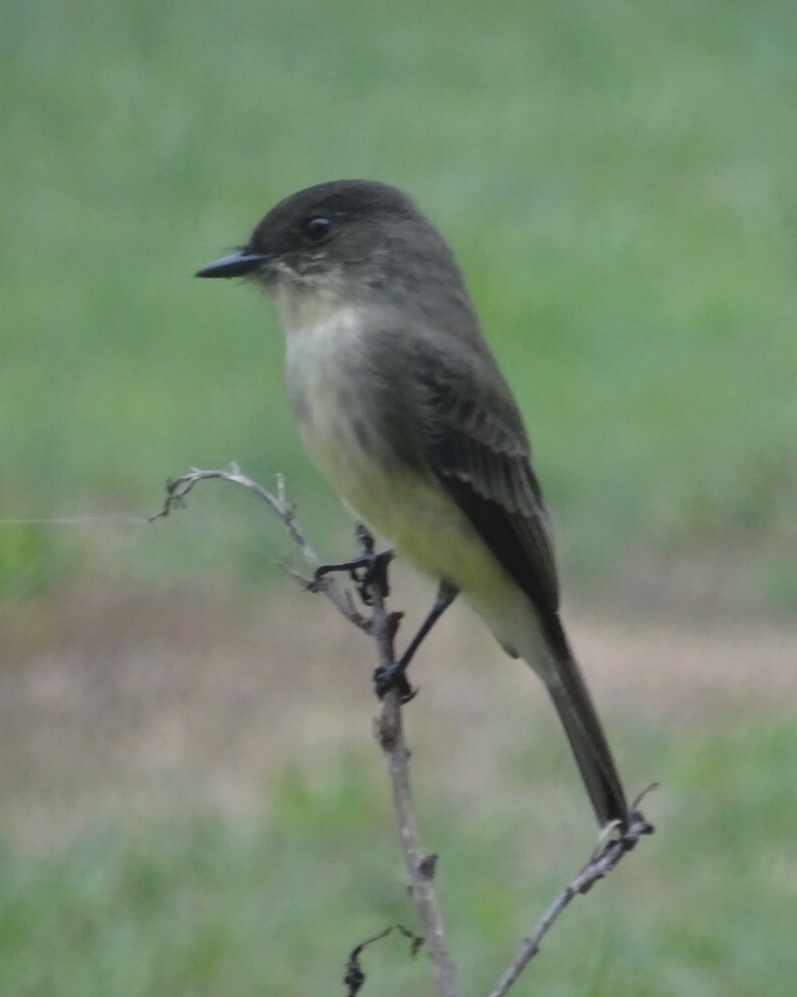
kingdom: Animalia
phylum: Chordata
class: Aves
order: Passeriformes
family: Tyrannidae
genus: Sayornis
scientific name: Sayornis phoebe
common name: Eastern phoebe
